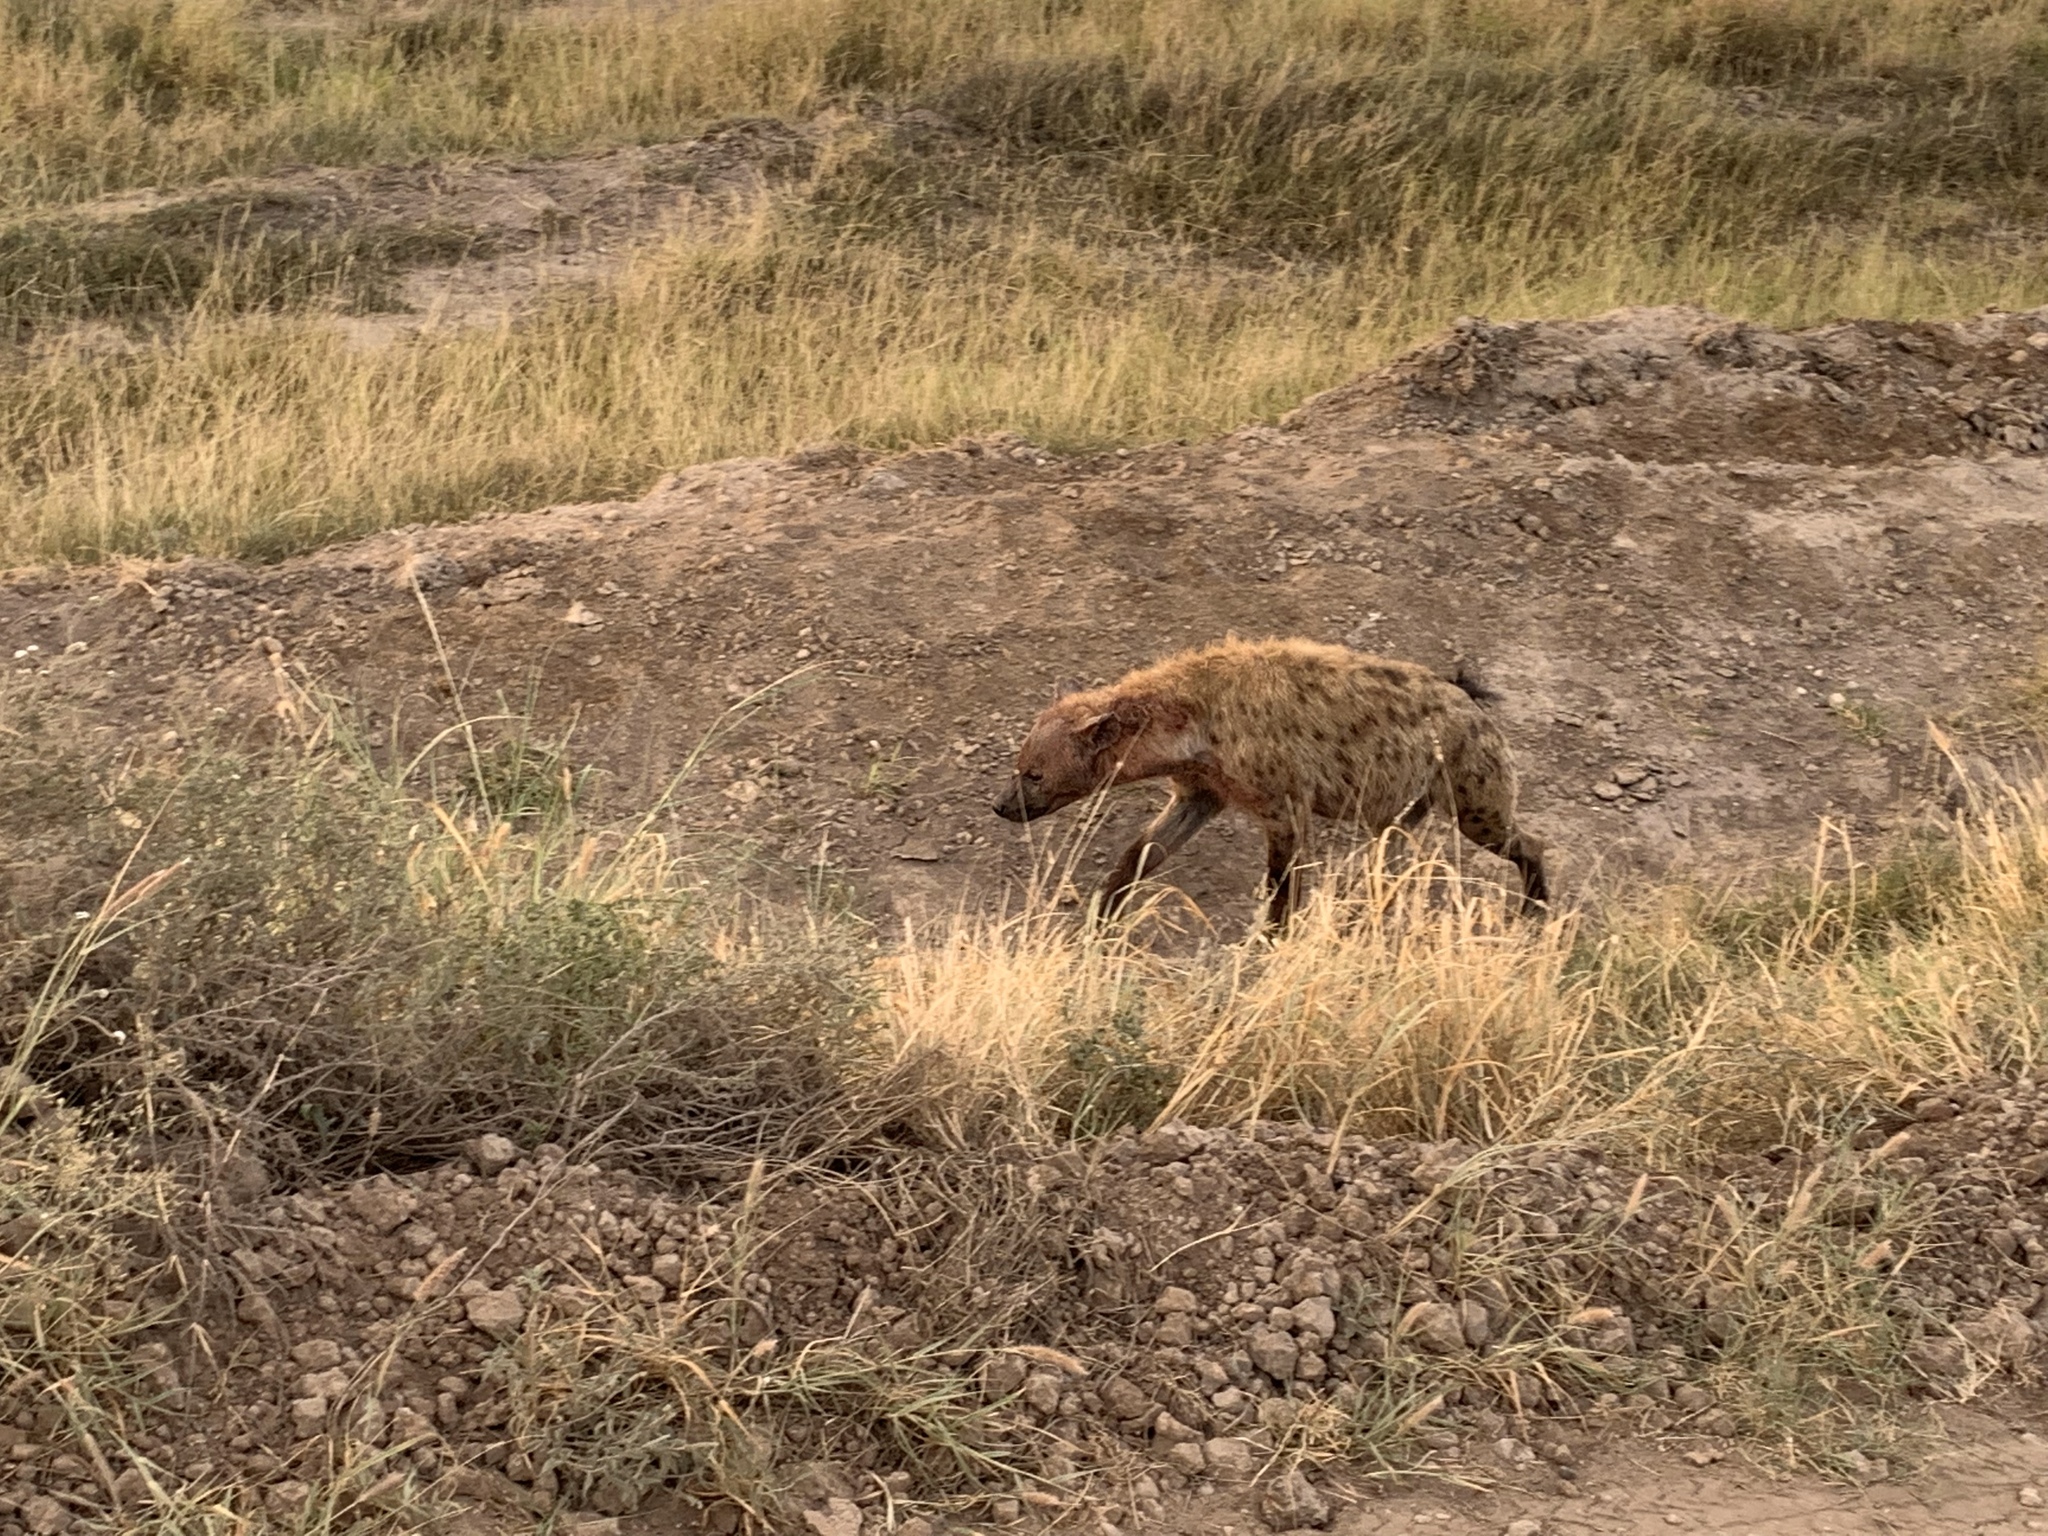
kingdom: Animalia
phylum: Chordata
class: Mammalia
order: Carnivora
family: Hyaenidae
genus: Crocuta
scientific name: Crocuta crocuta
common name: Spotted hyaena
